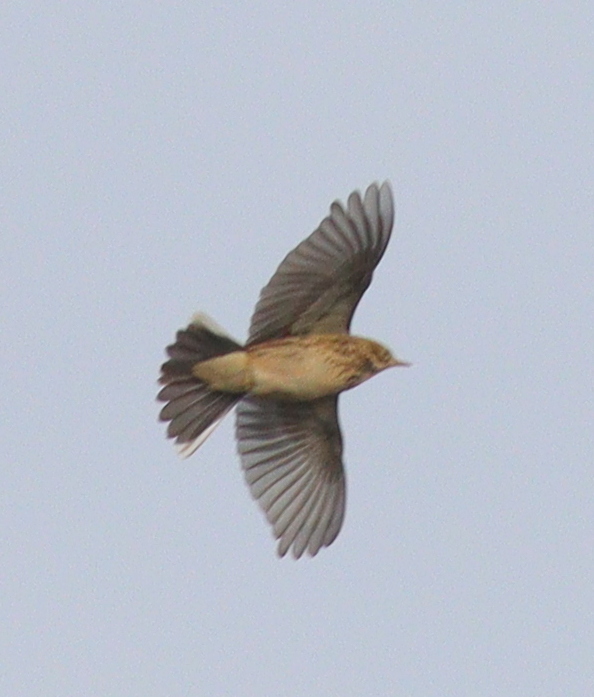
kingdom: Animalia
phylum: Chordata
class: Aves
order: Passeriformes
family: Motacillidae
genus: Anthus
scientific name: Anthus pratensis
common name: Meadow pipit
